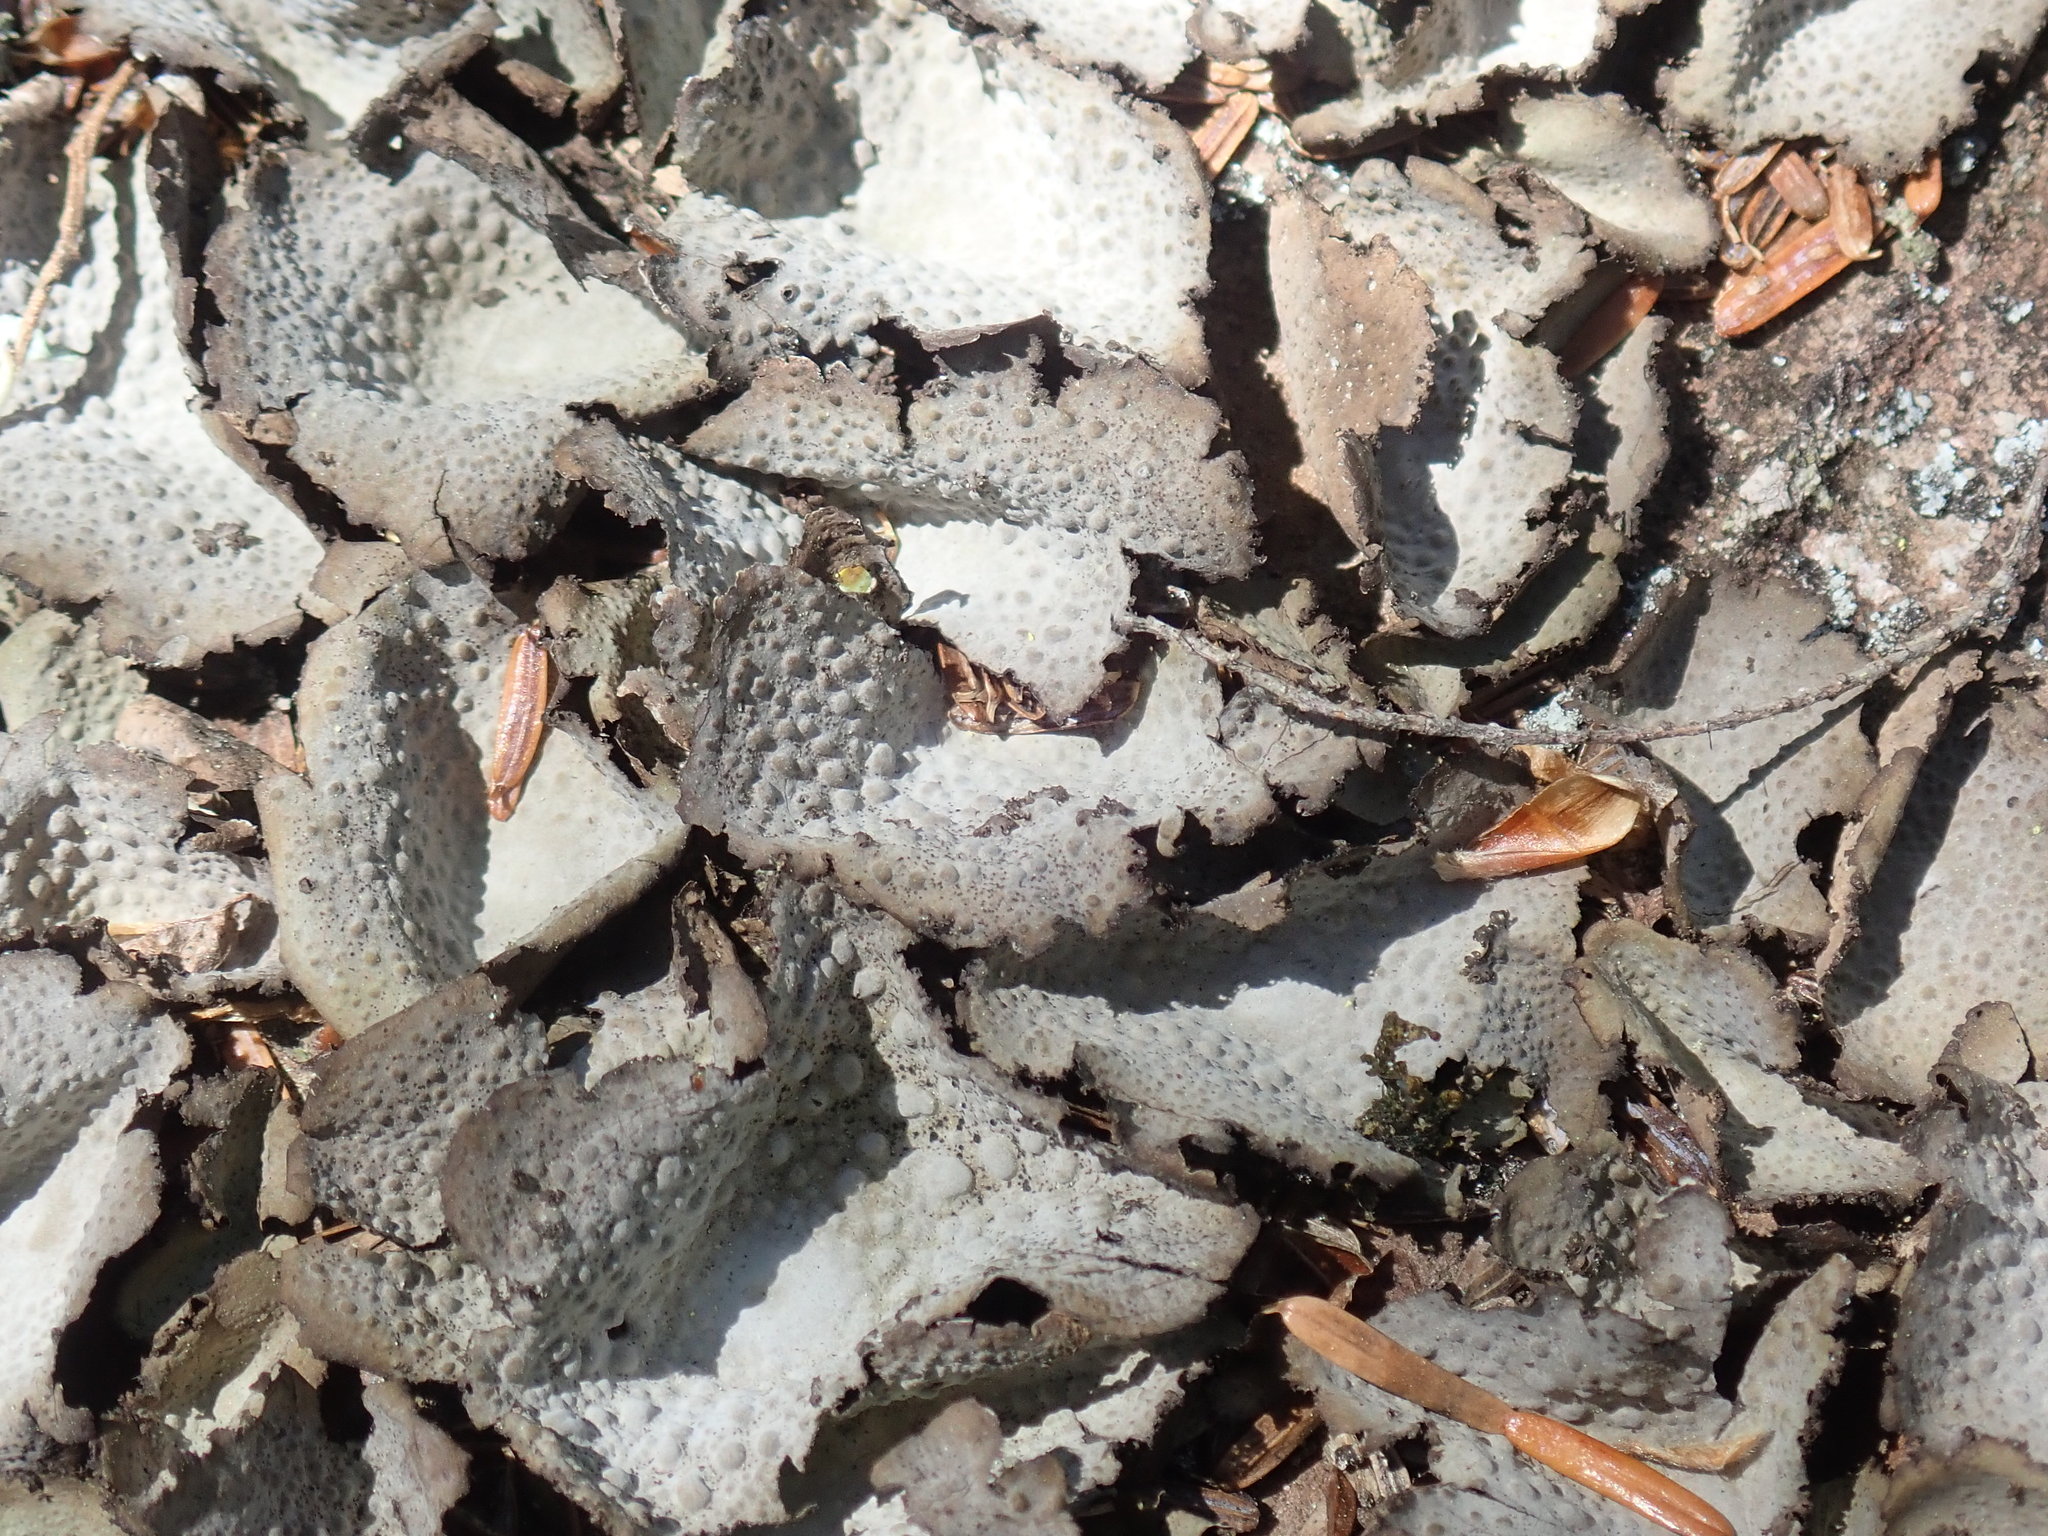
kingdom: Fungi
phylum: Ascomycota
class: Lecanoromycetes
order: Umbilicariales
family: Umbilicariaceae
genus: Lasallia
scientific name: Lasallia papulosa
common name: Common toadskin lichen
